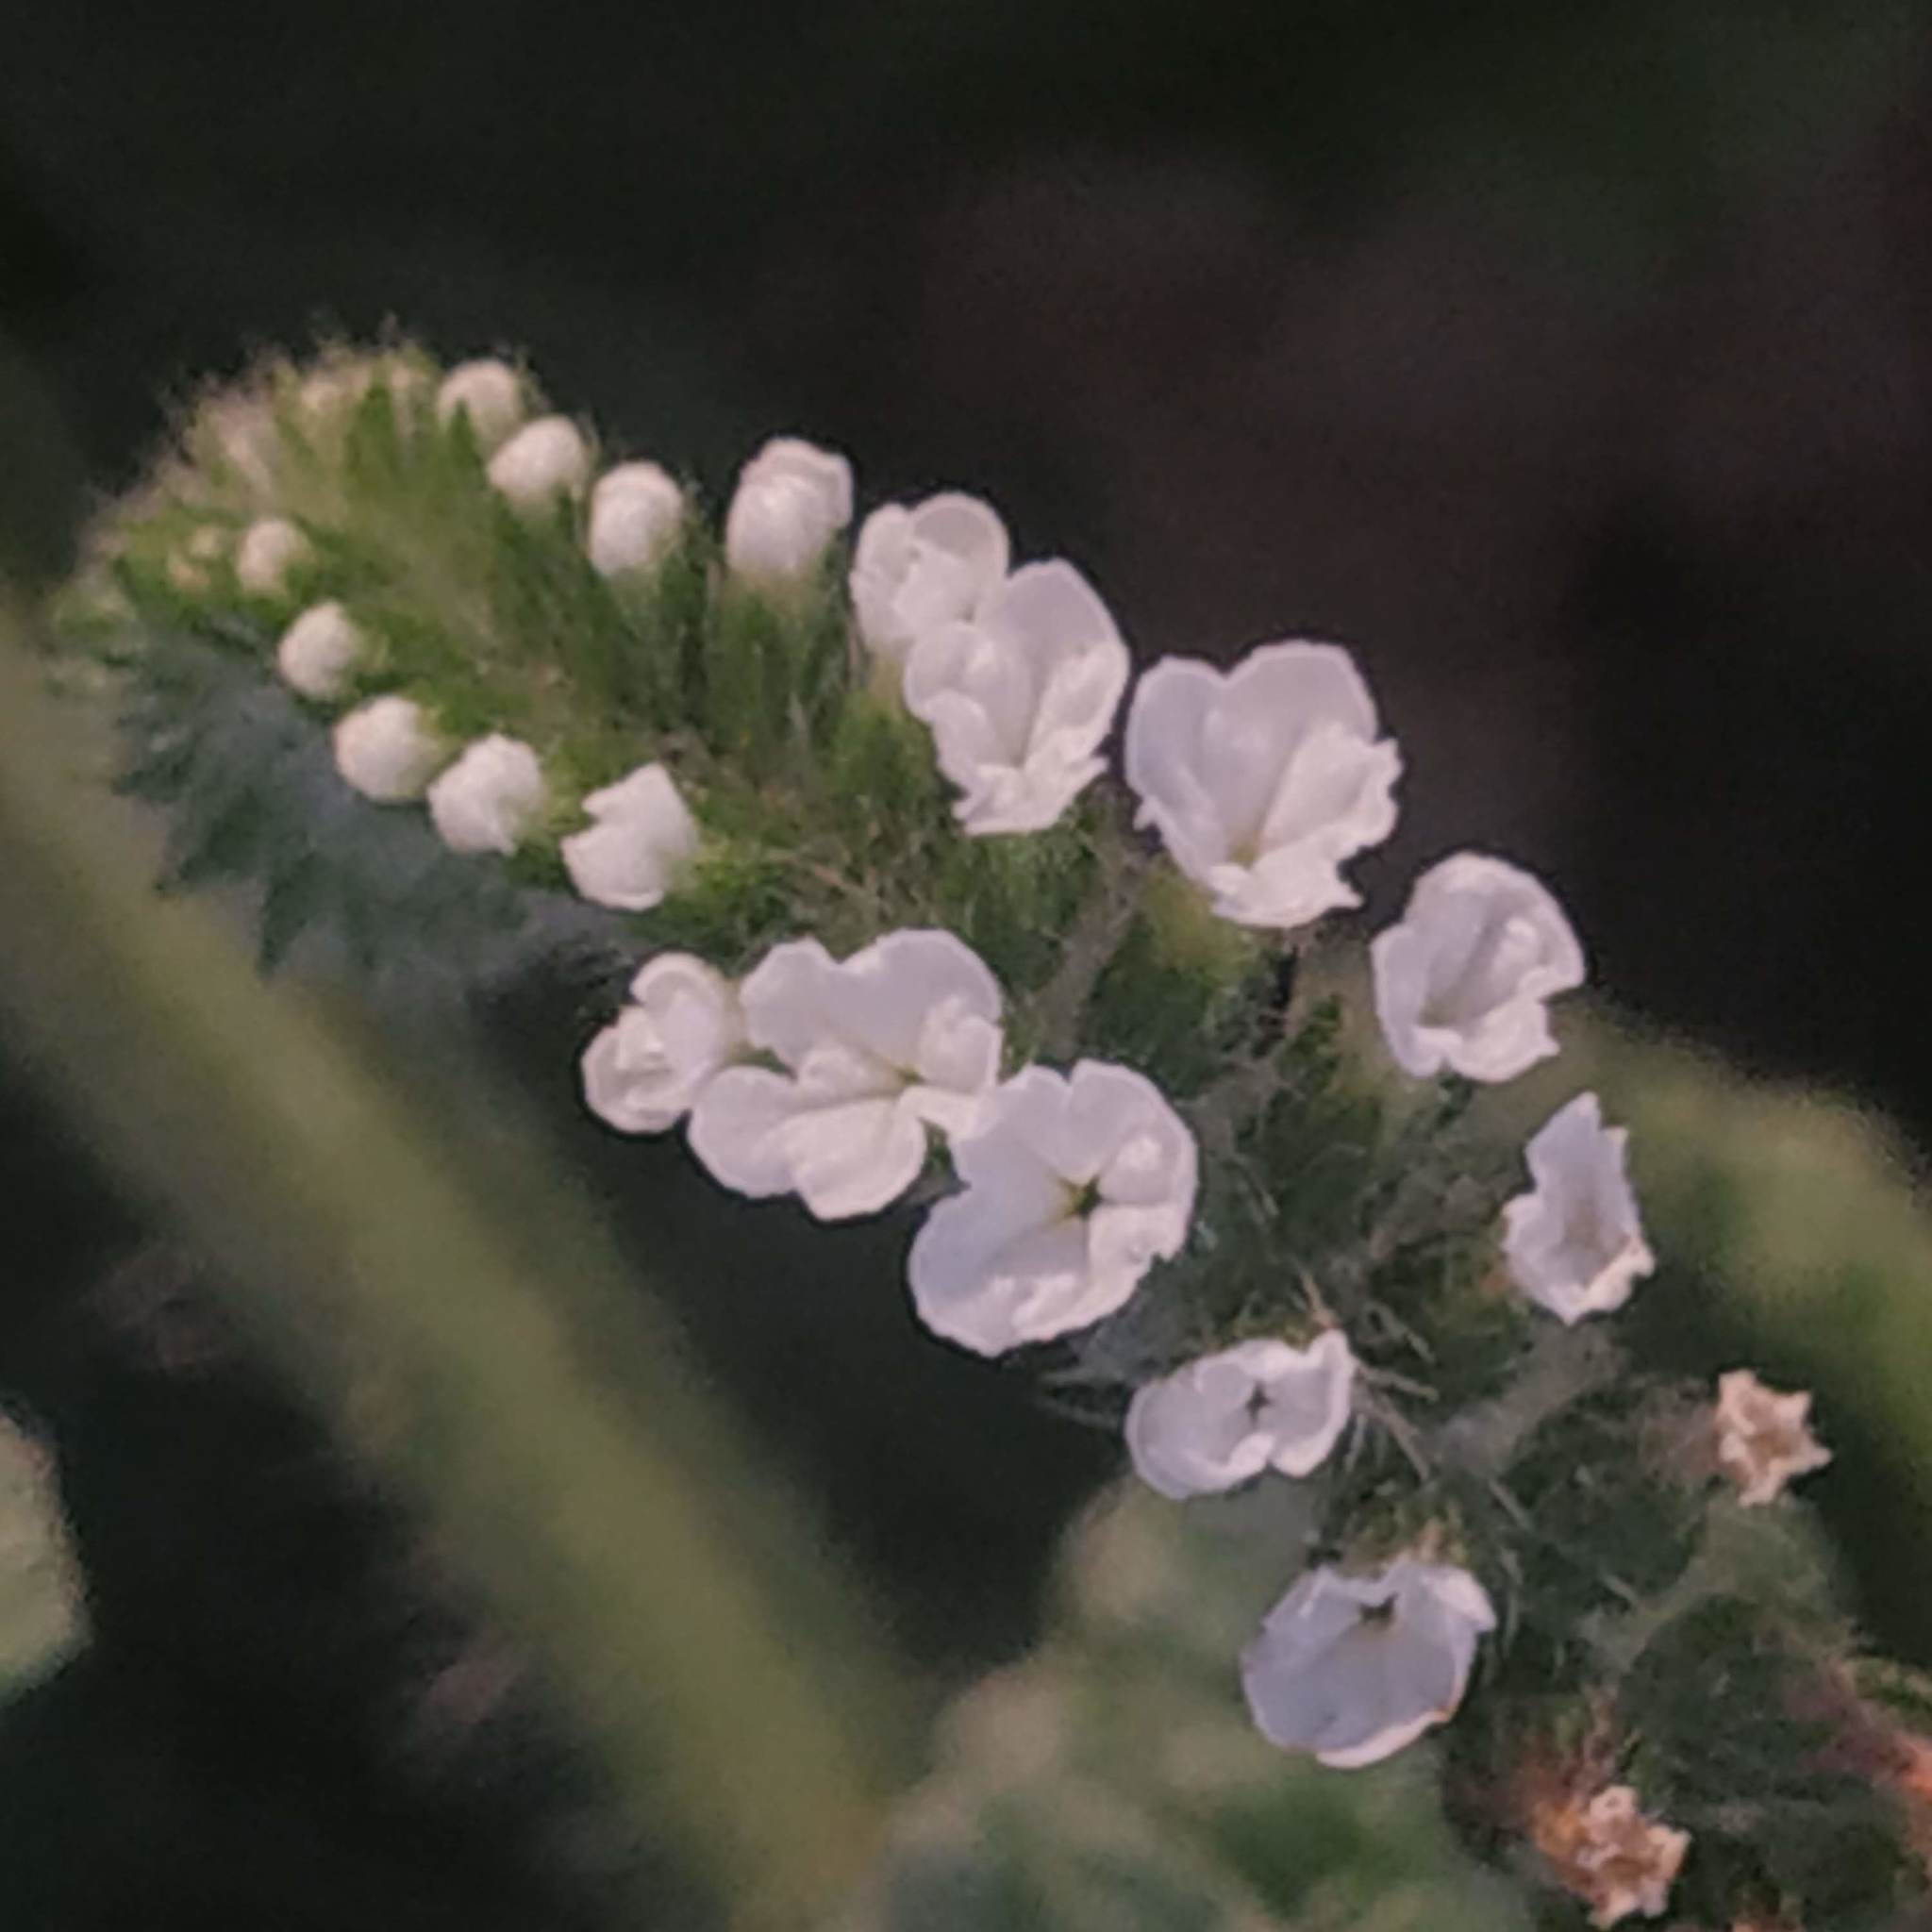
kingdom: Plantae
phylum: Tracheophyta
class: Magnoliopsida
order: Boraginales
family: Heliotropiaceae
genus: Heliotropium
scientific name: Heliotropium indicum
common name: Indian heliotrope
